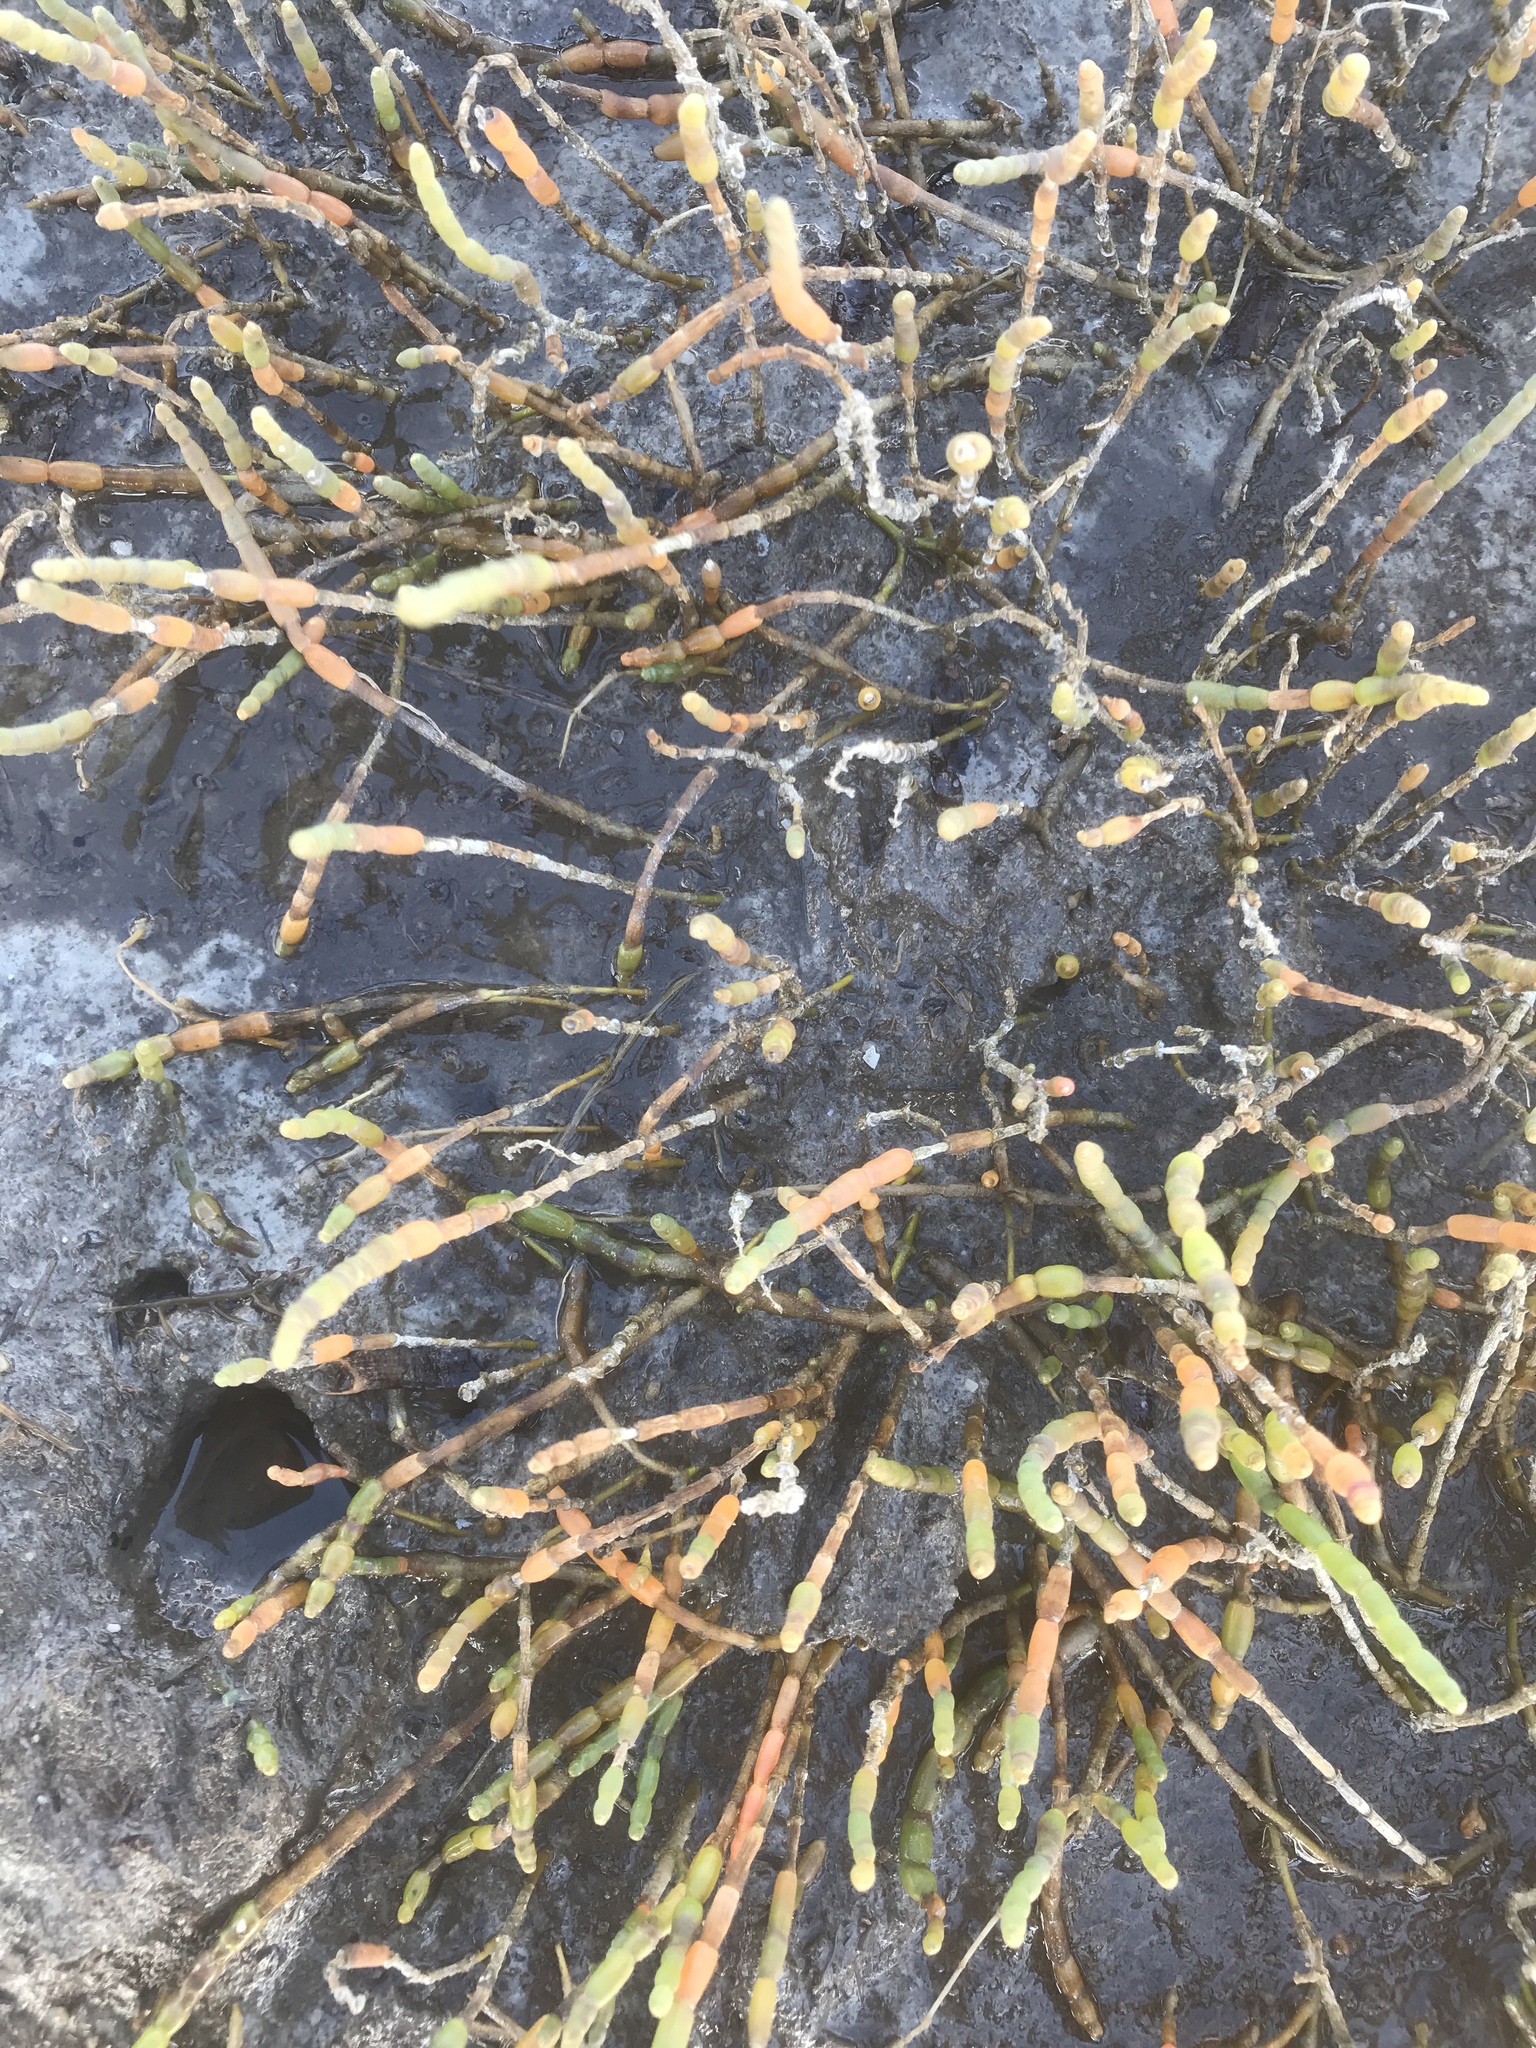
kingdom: Plantae
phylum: Tracheophyta
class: Magnoliopsida
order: Caryophyllales
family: Amaranthaceae
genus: Salicornia
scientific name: Salicornia virginica
